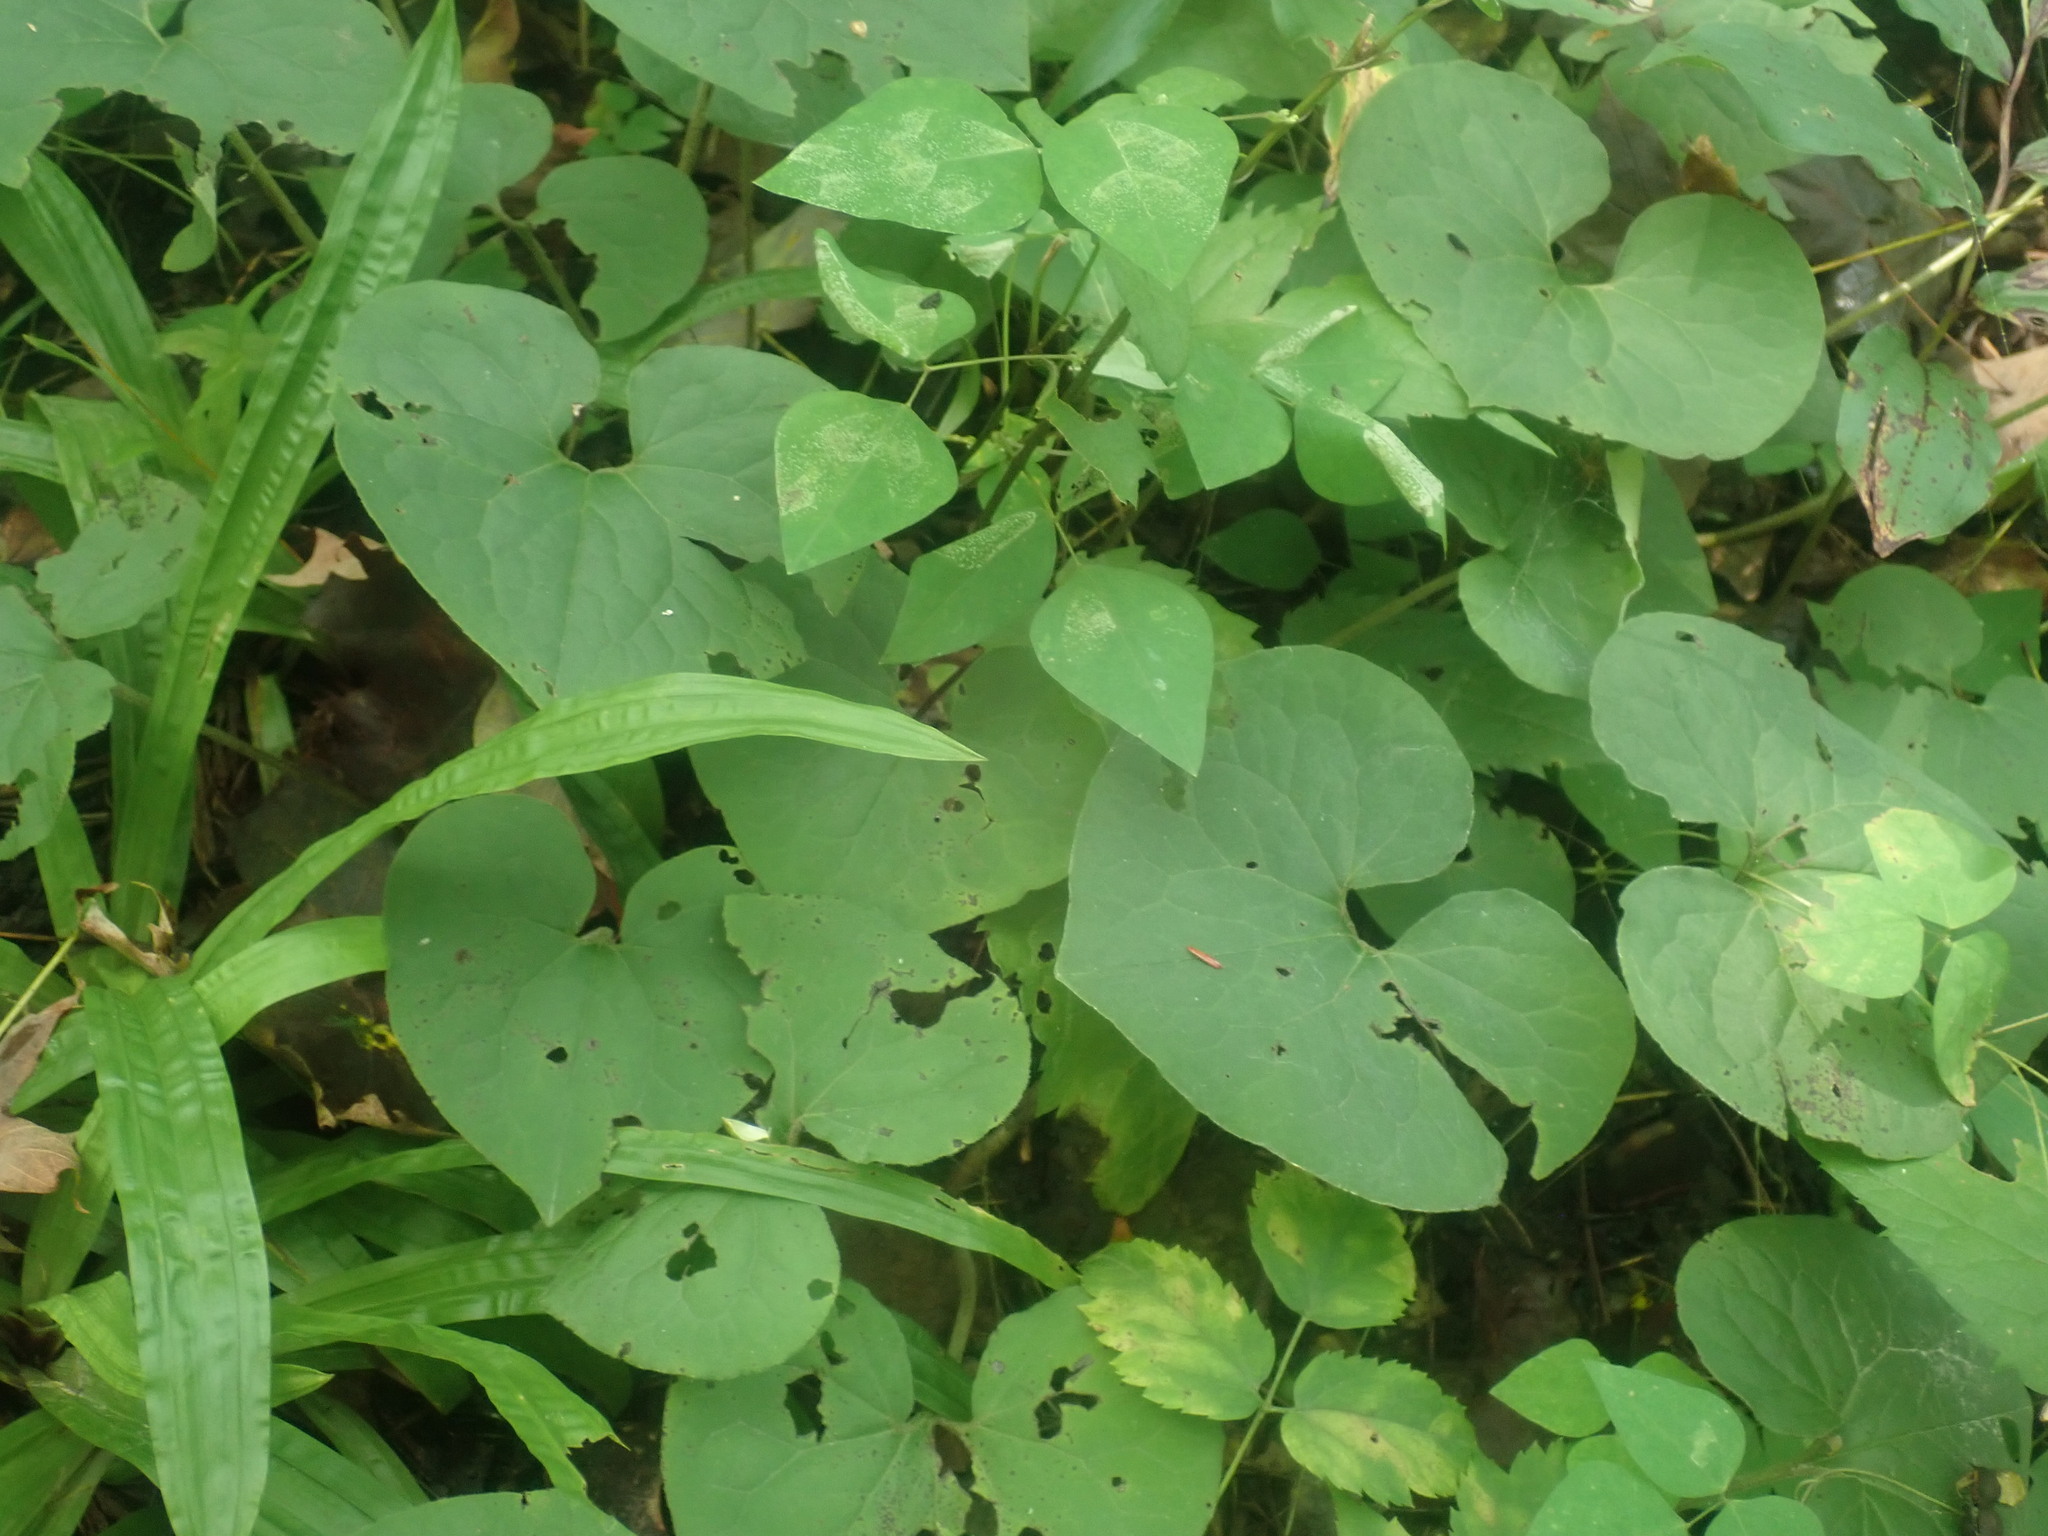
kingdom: Plantae
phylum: Tracheophyta
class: Magnoliopsida
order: Piperales
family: Aristolochiaceae
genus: Asarum
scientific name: Asarum canadense
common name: Wild ginger
